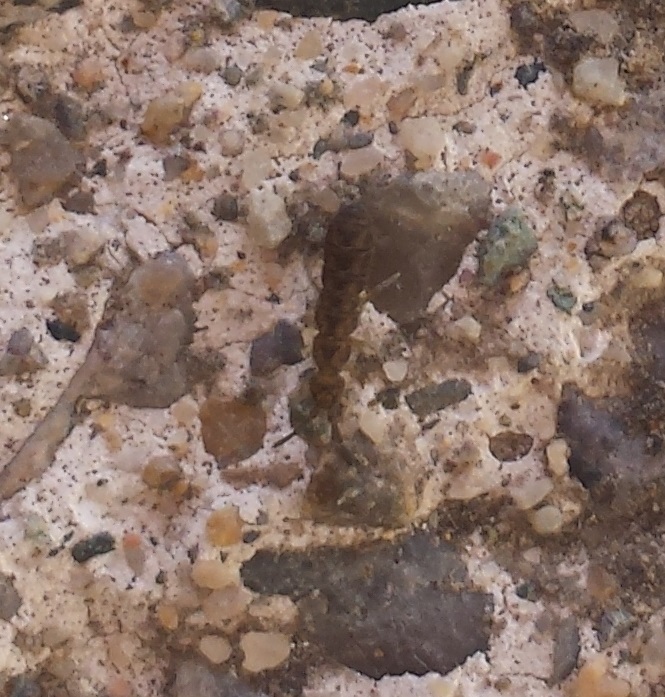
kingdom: Animalia
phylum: Arthropoda
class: Collembola
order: Entomobryomorpha
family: Isotomidae
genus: Isotoma
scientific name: Isotoma delta
